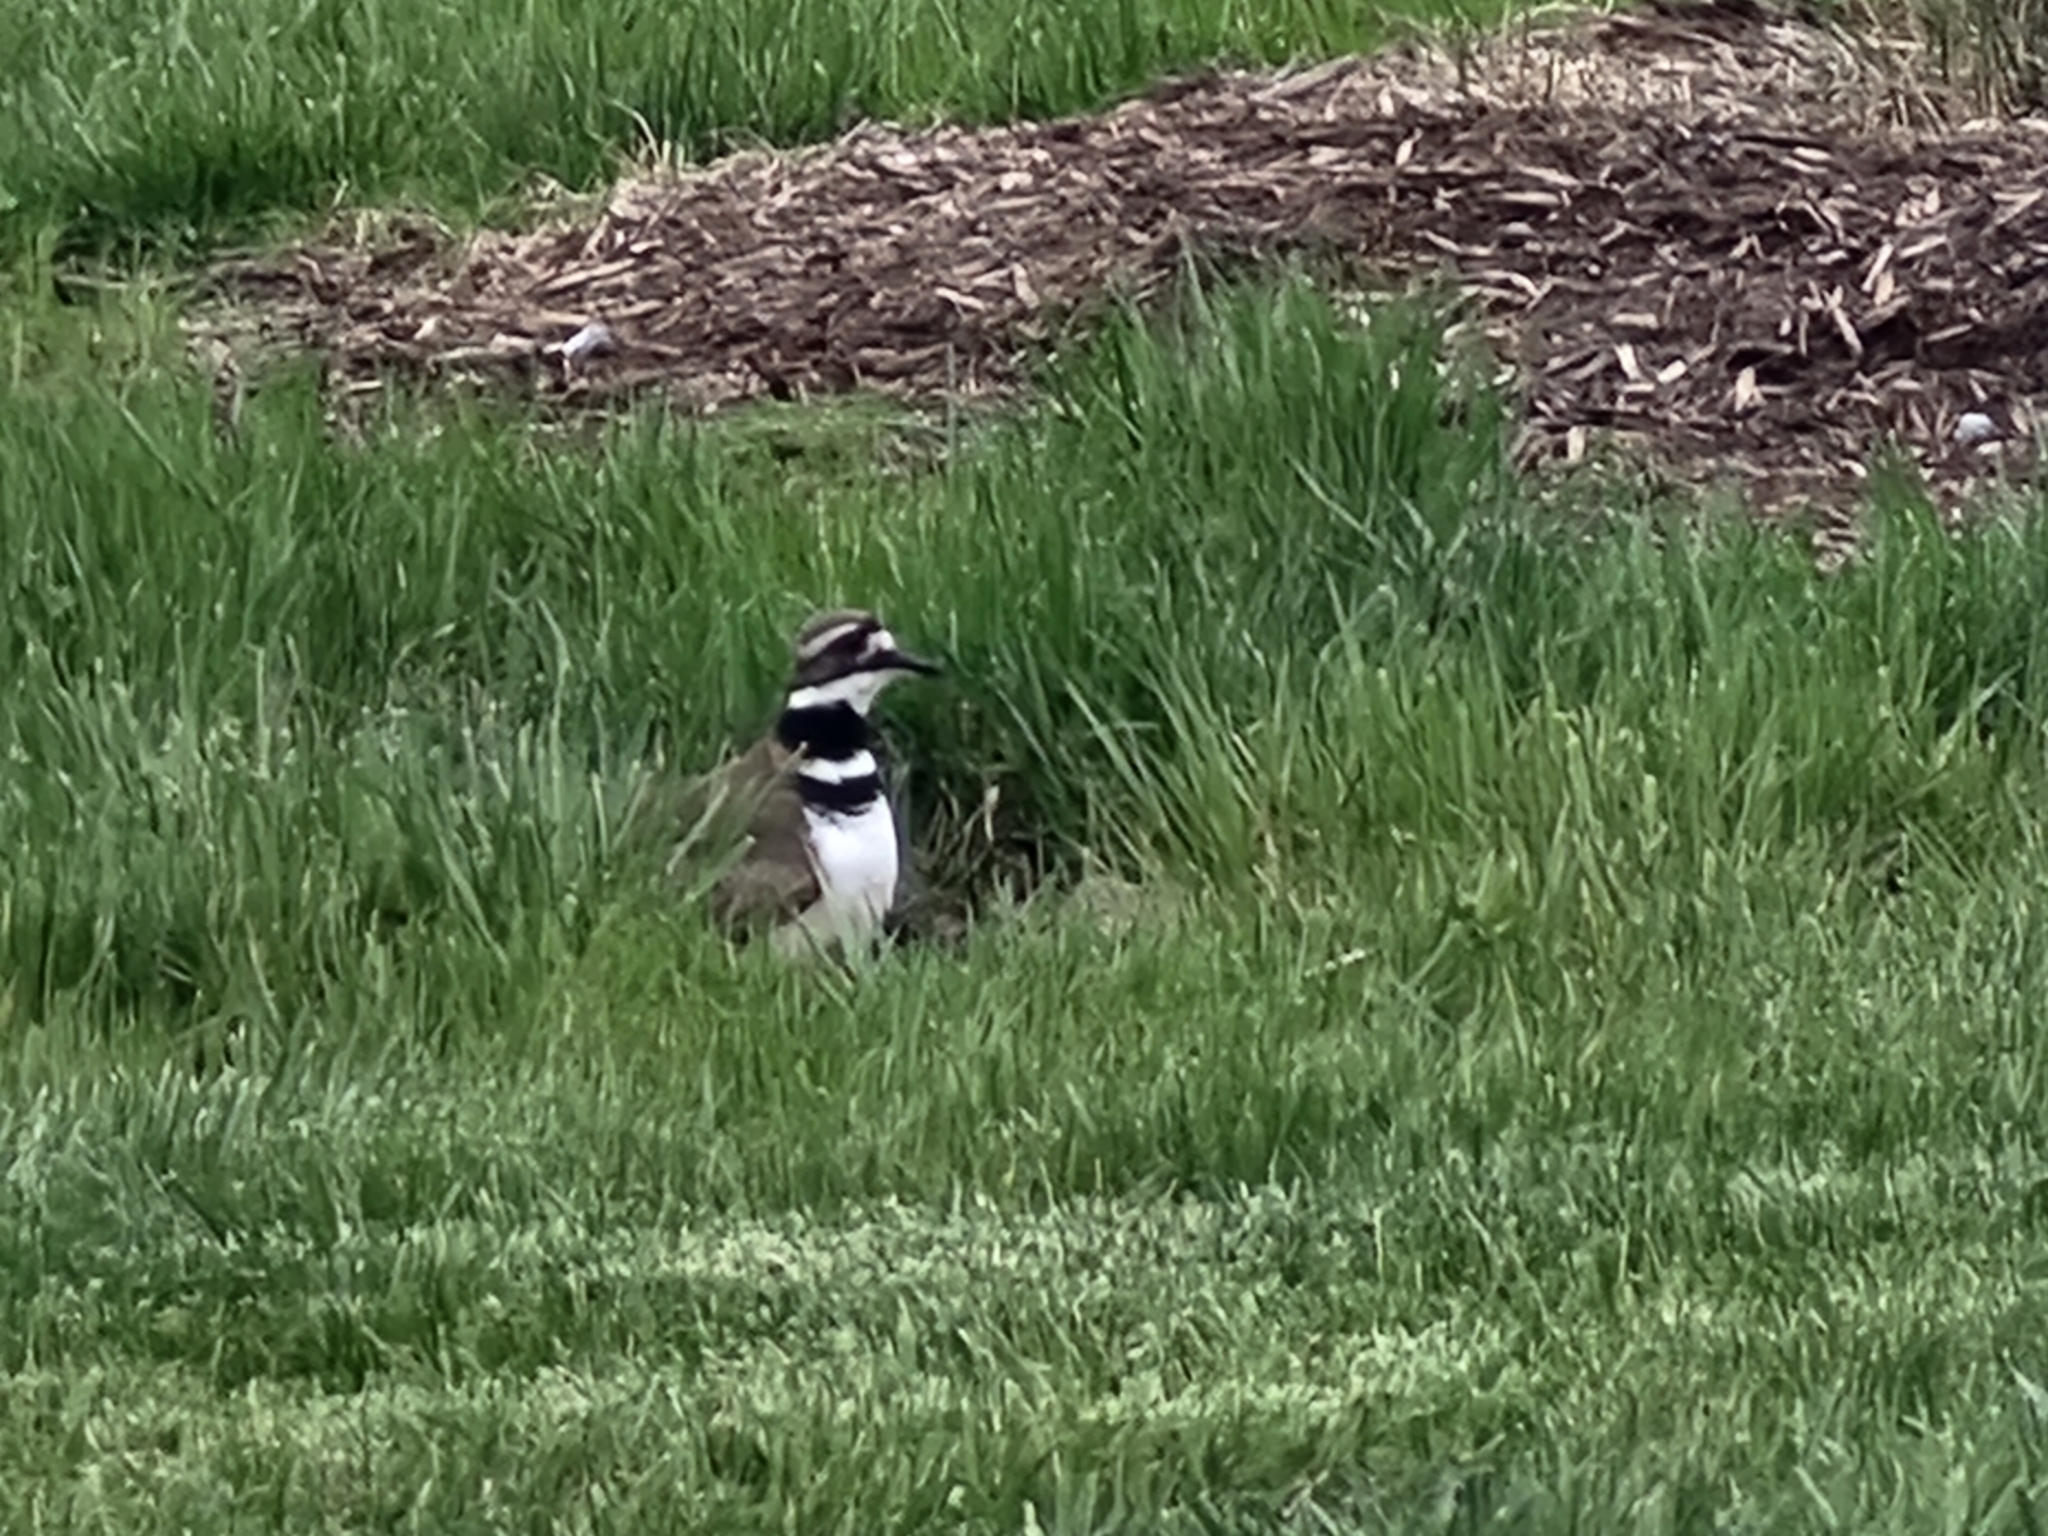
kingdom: Animalia
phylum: Chordata
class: Aves
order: Charadriiformes
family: Charadriidae
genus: Charadrius
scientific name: Charadrius vociferus
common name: Killdeer
